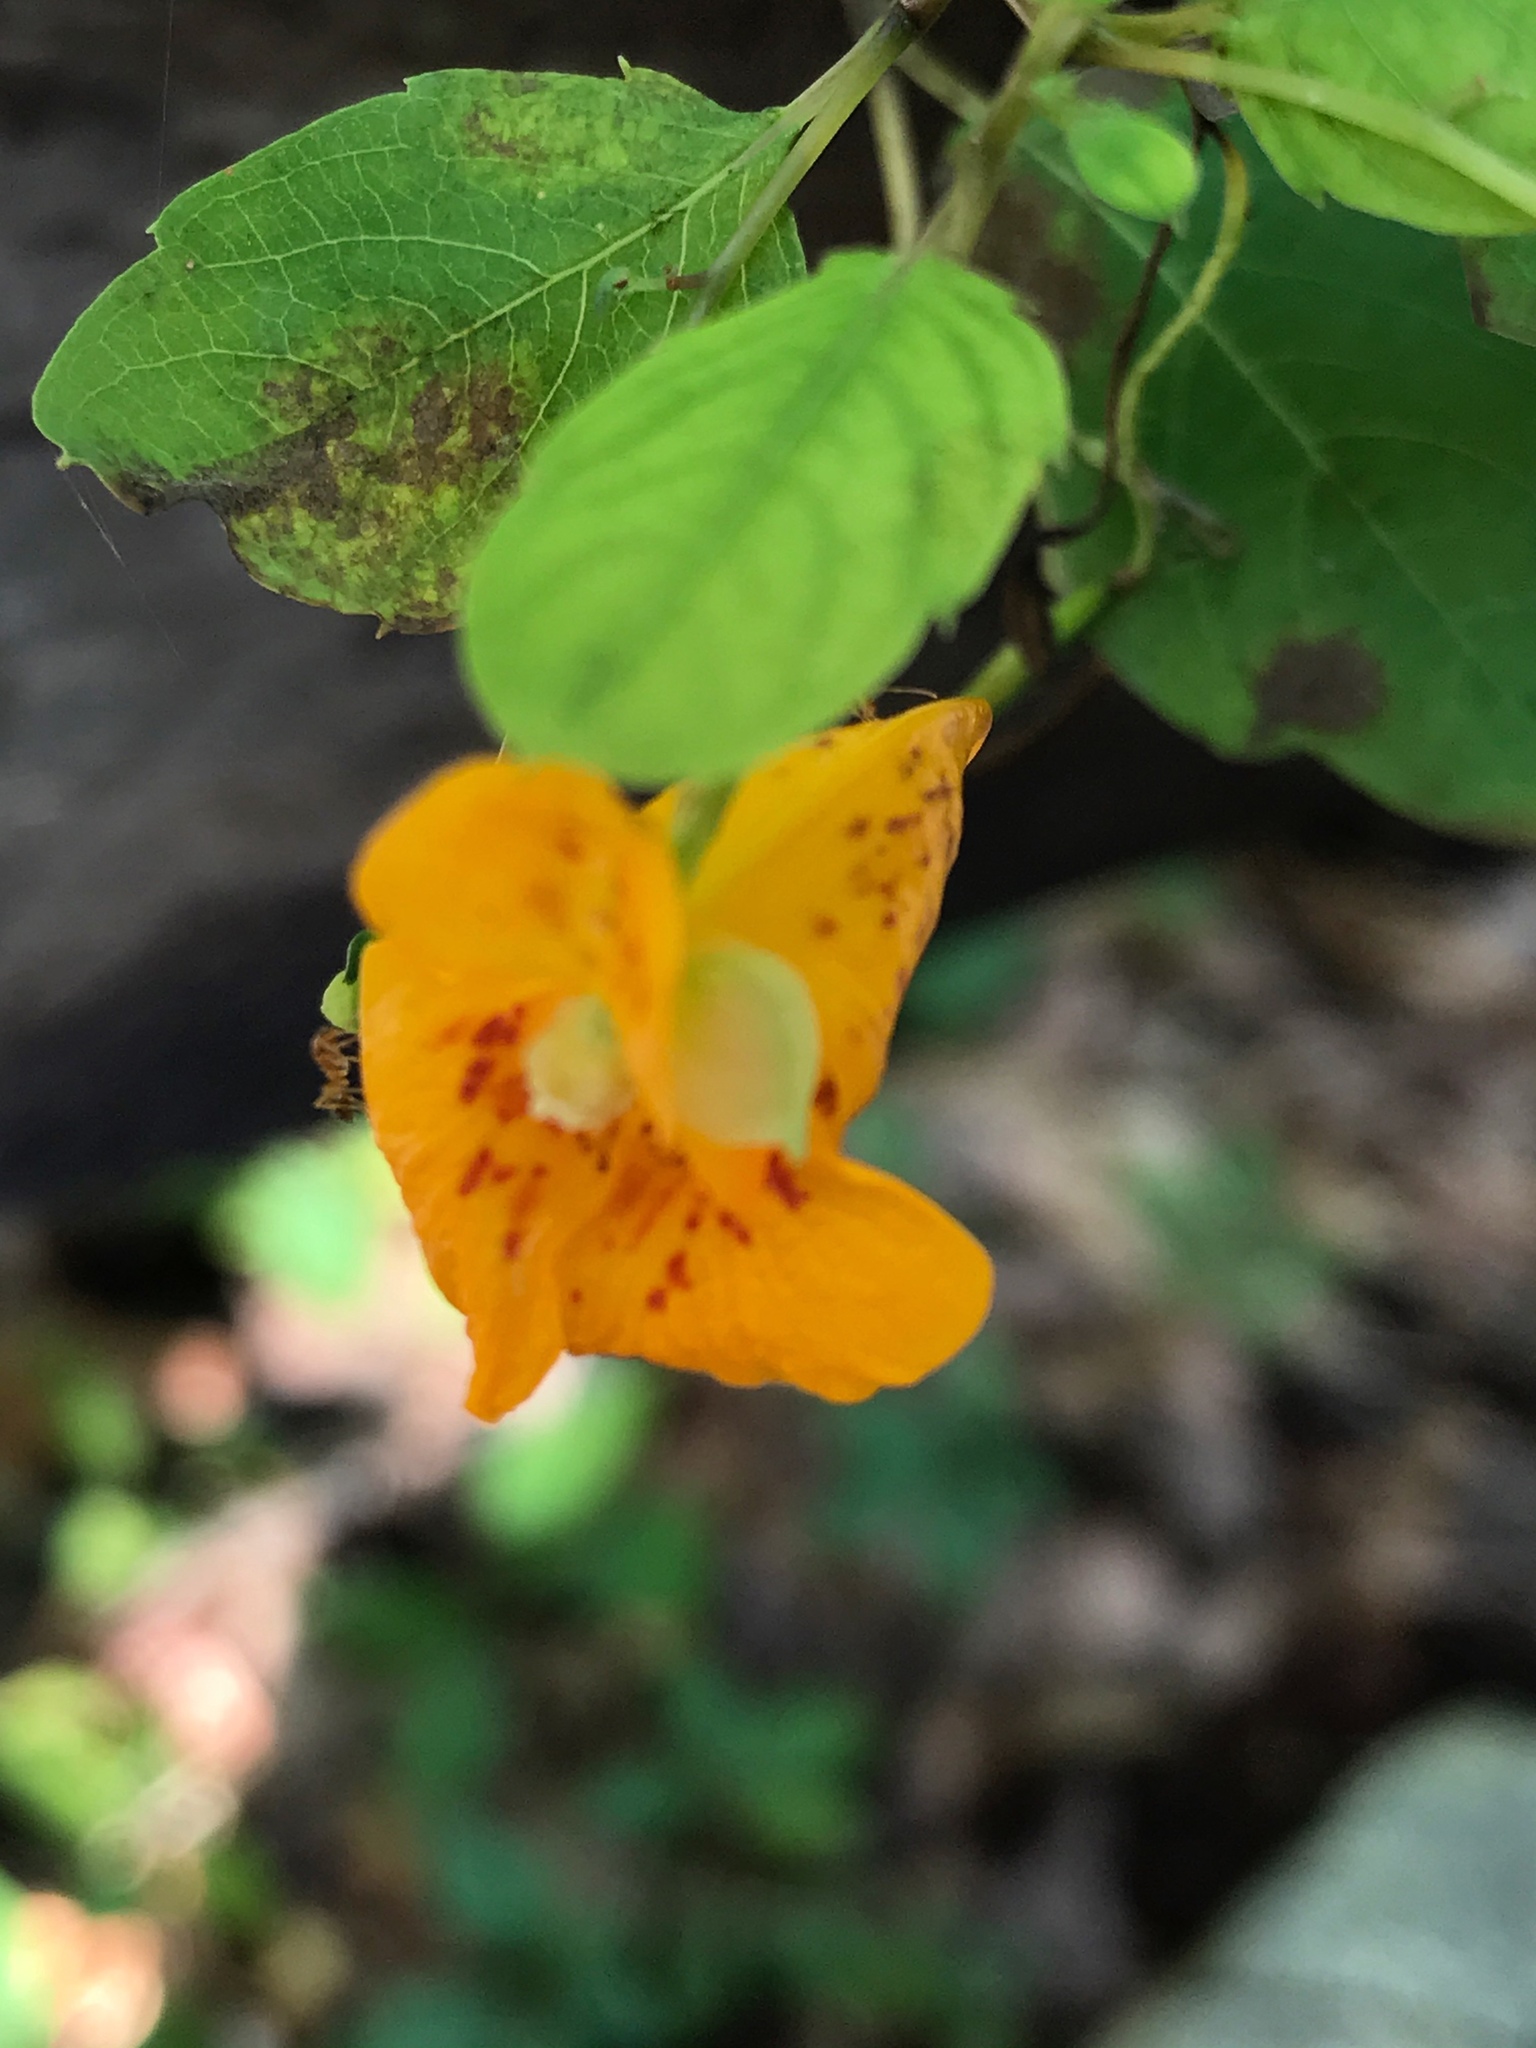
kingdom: Plantae
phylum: Tracheophyta
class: Magnoliopsida
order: Ericales
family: Balsaminaceae
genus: Impatiens
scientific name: Impatiens capensis
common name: Orange balsam
